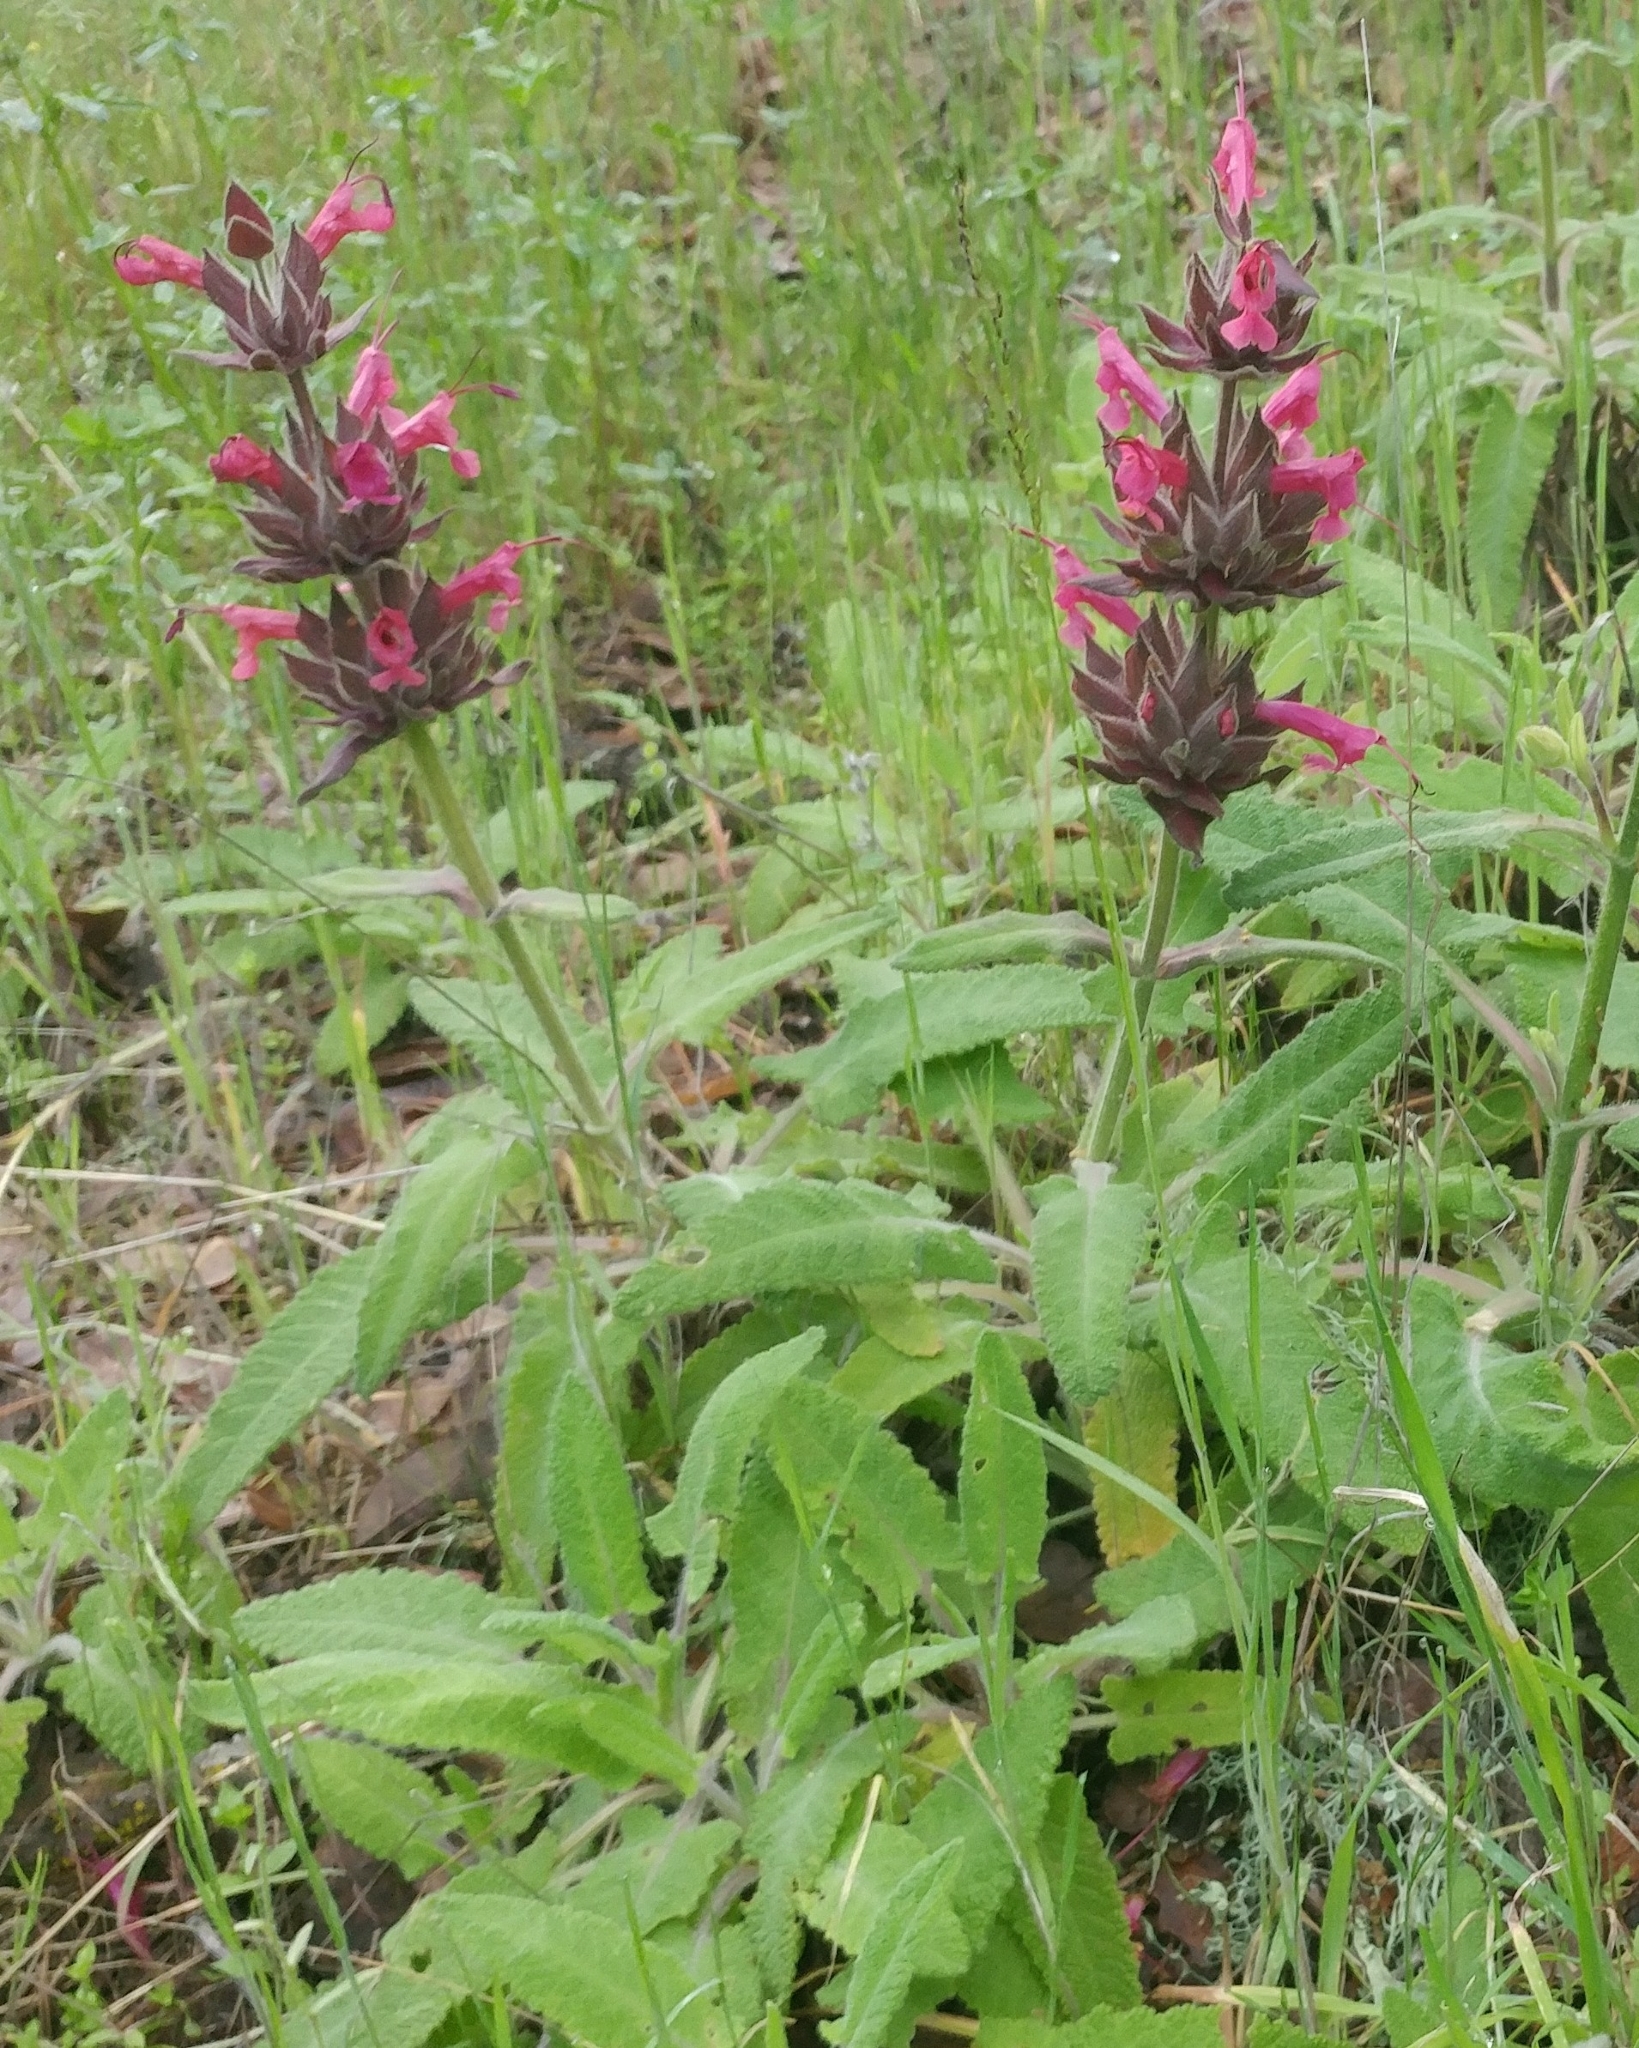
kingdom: Plantae
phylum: Tracheophyta
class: Magnoliopsida
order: Lamiales
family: Lamiaceae
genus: Salvia
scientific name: Salvia spathacea
